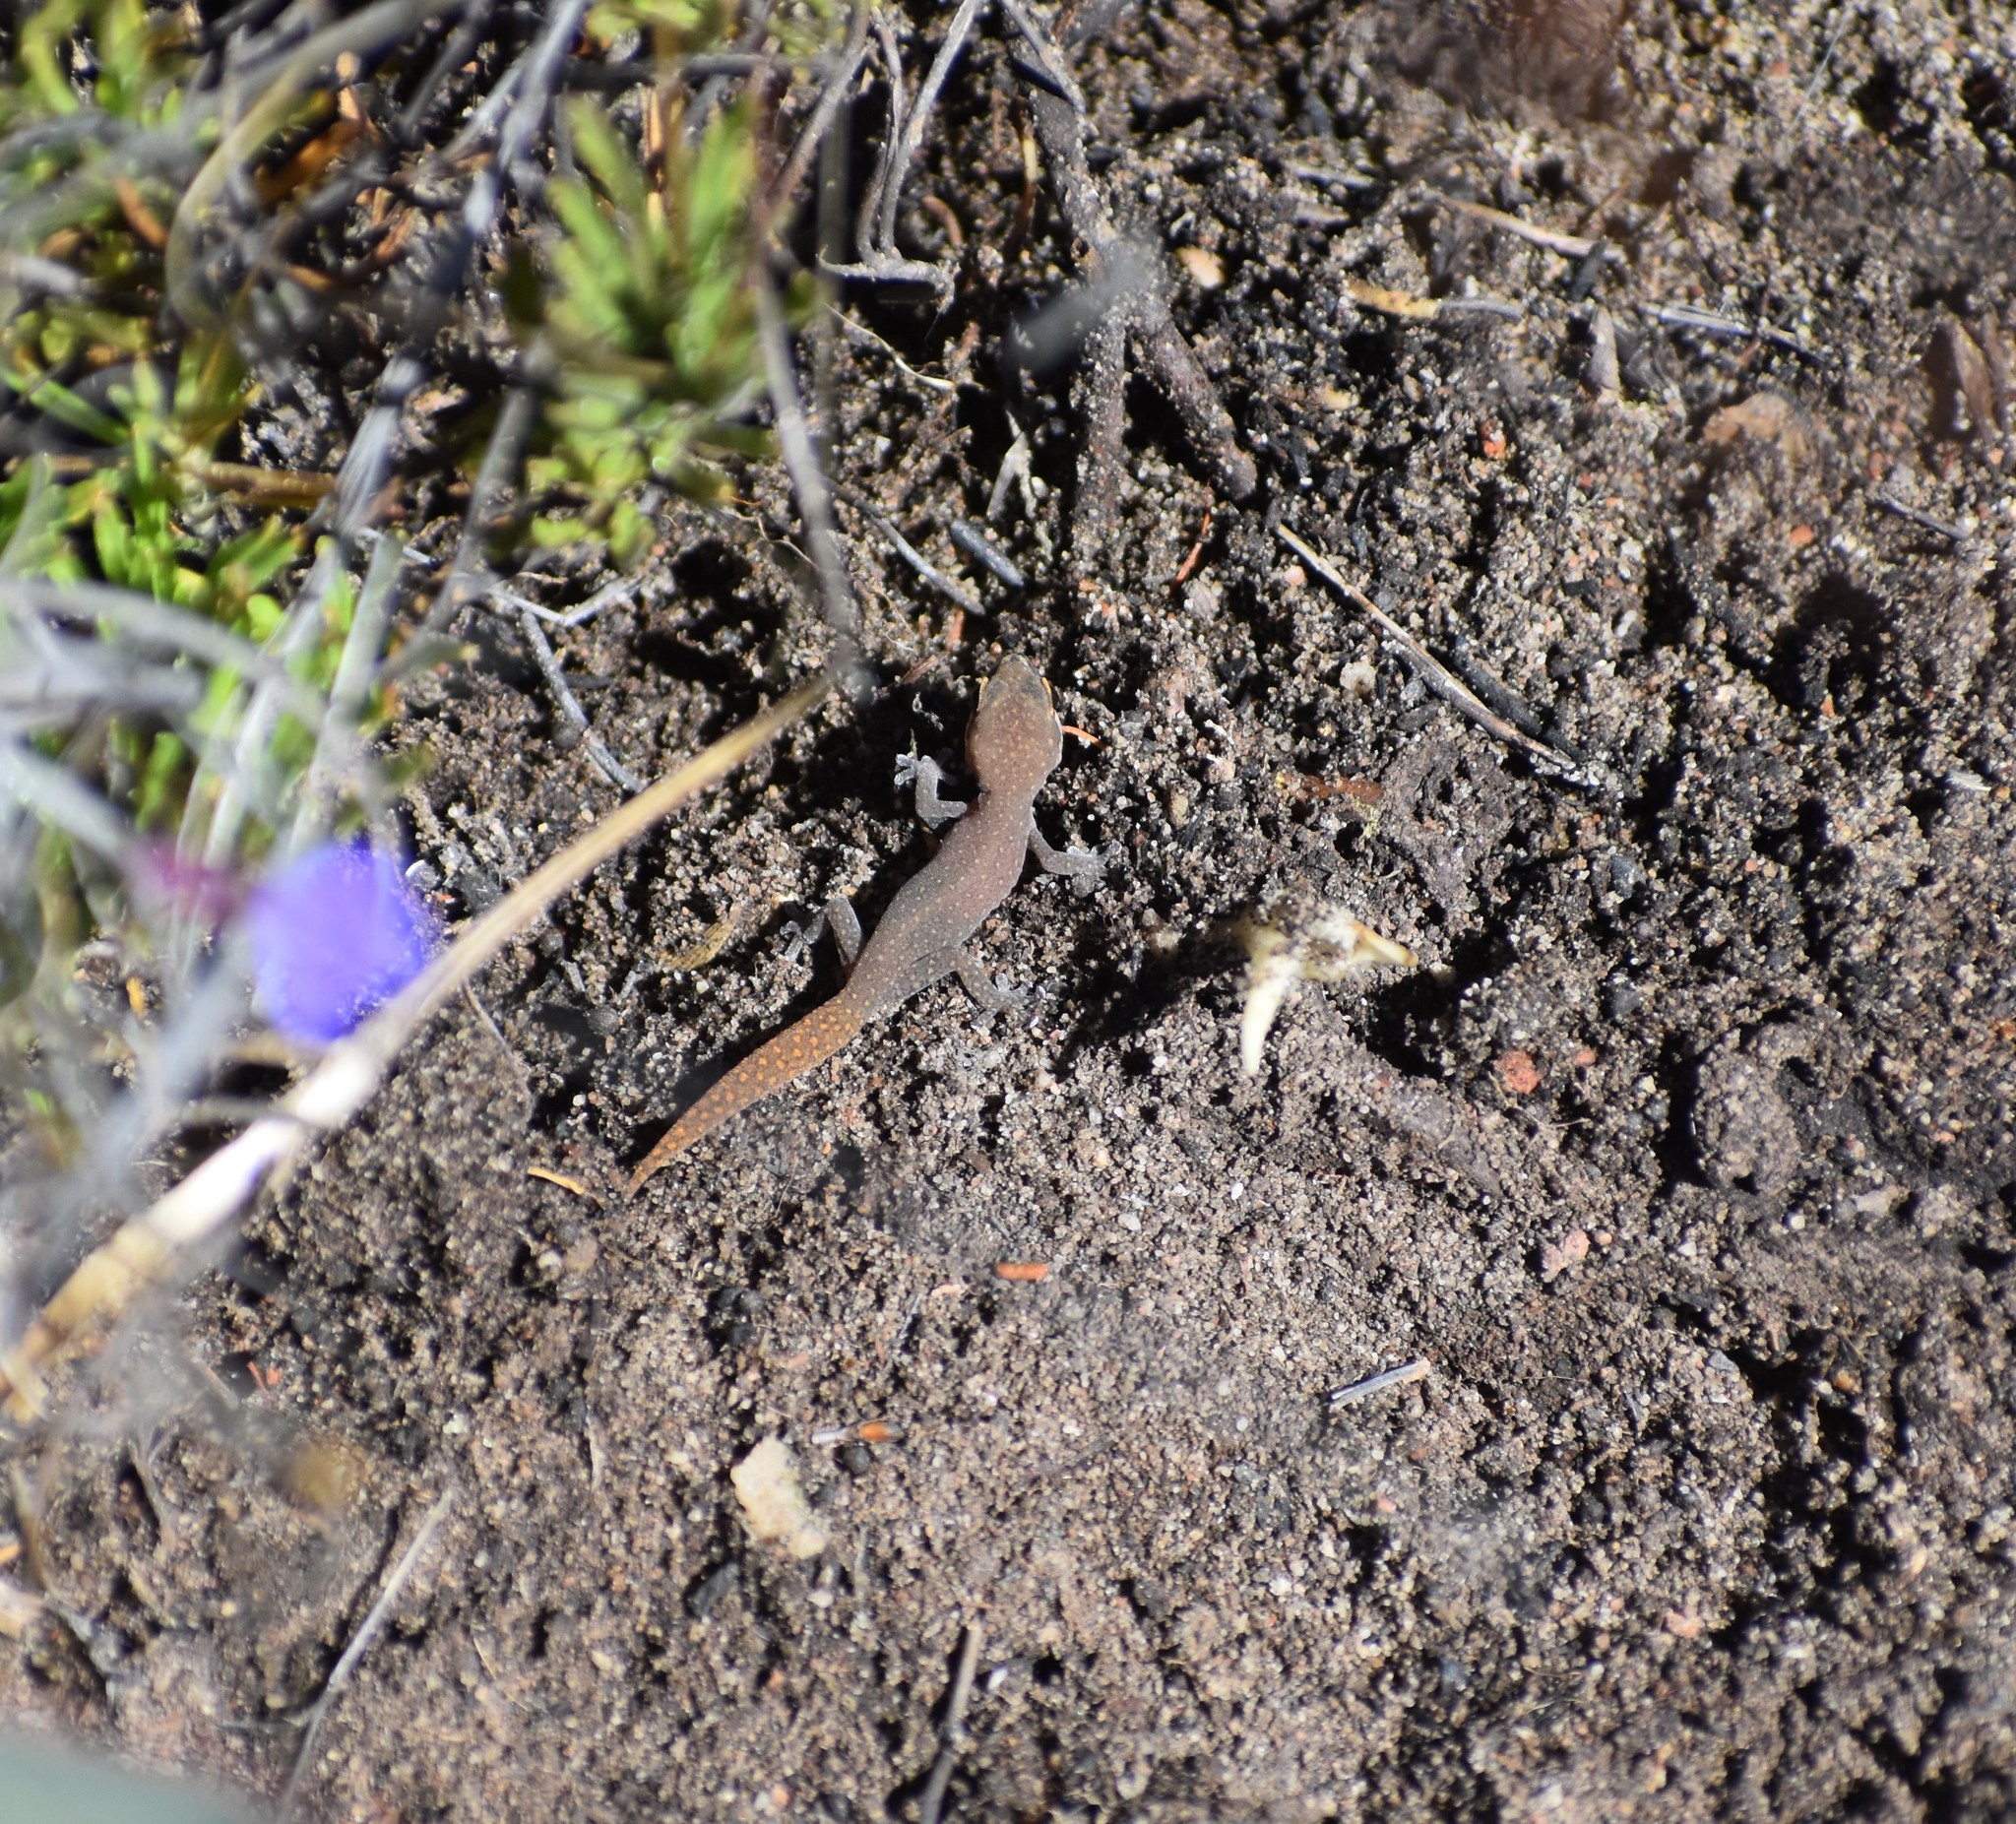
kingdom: Animalia
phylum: Chordata
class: Squamata
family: Gekkonidae
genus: Pachydactylus
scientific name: Pachydactylus geitje
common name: Ocellated thick-toed gecko
